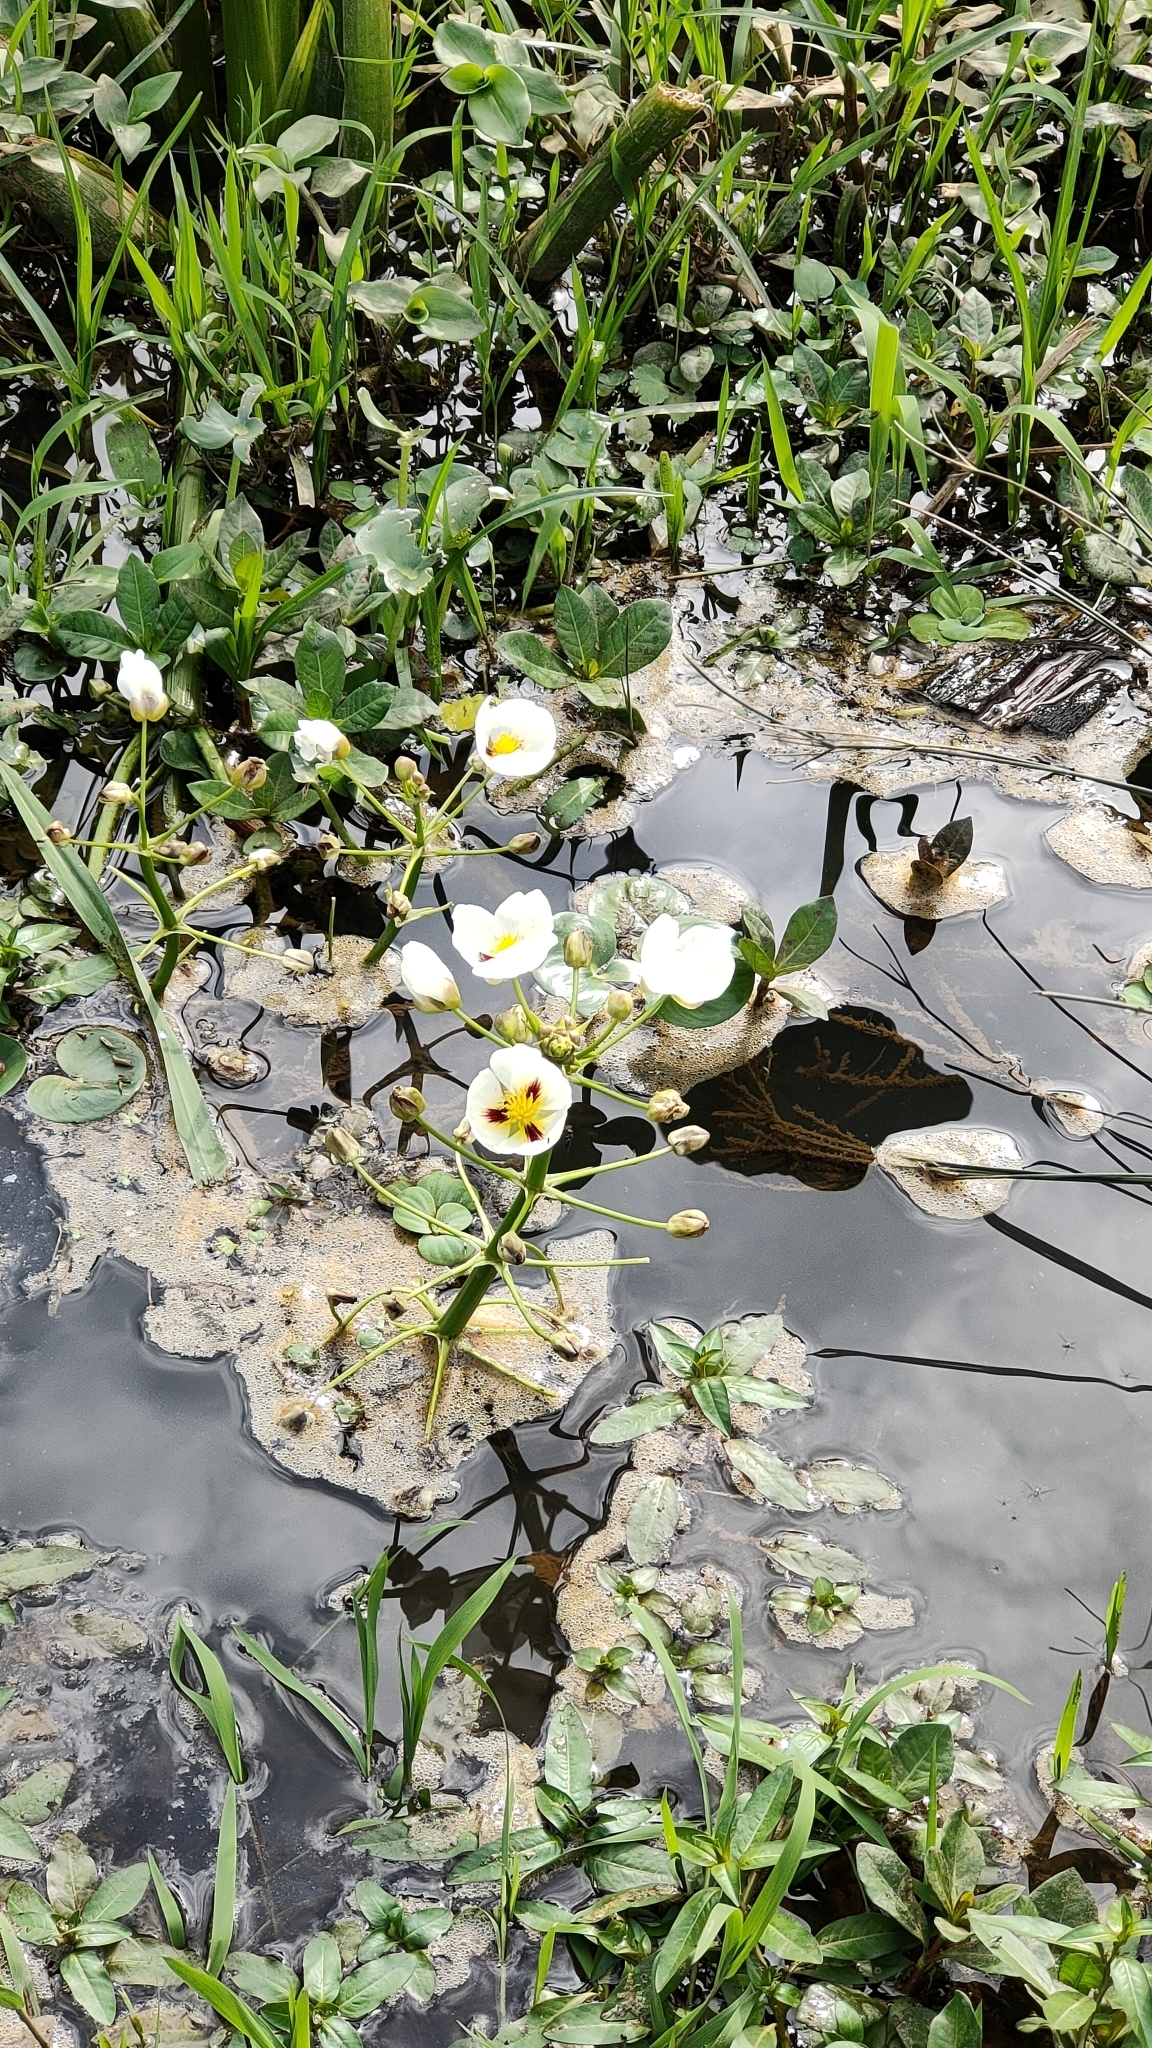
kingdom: Plantae
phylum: Tracheophyta
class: Liliopsida
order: Alismatales
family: Alismataceae
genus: Sagittaria
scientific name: Sagittaria montevidensis
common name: Giant arrowhead
